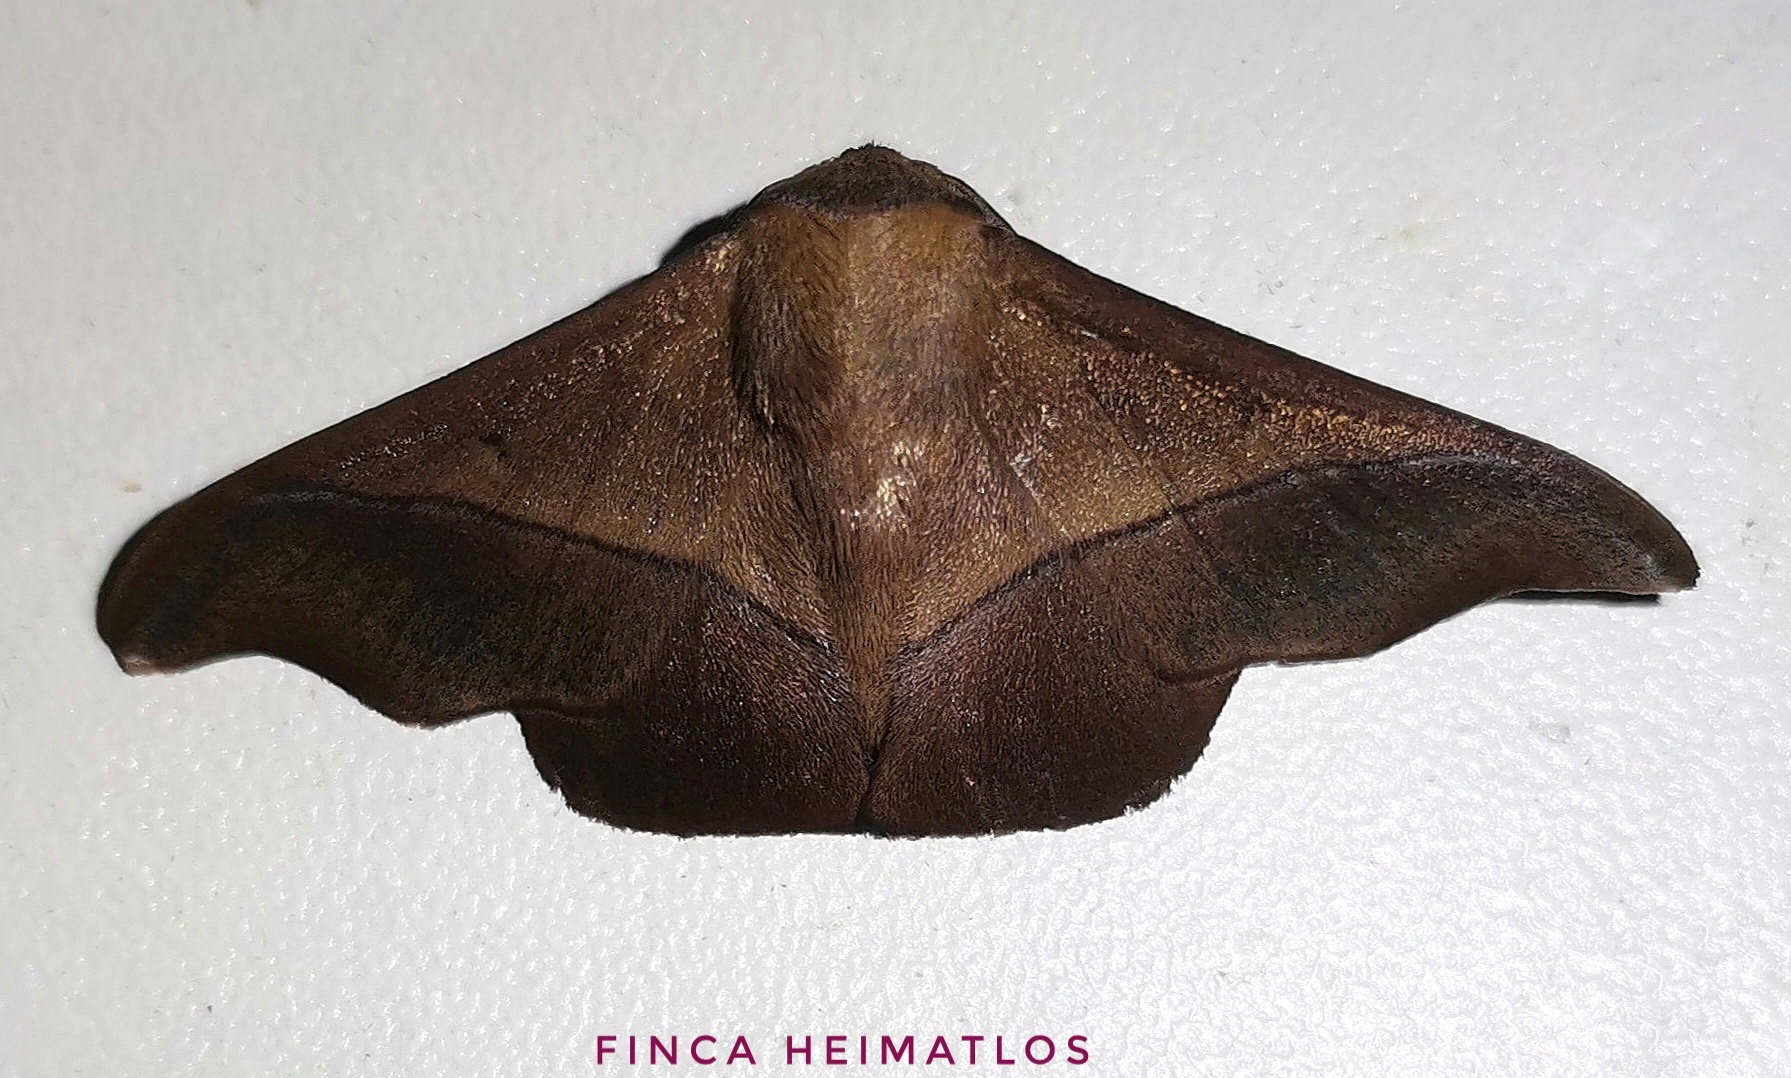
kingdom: Animalia
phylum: Arthropoda
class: Insecta
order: Lepidoptera
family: Mimallonidae
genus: Alheita
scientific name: Alheita subnotata
